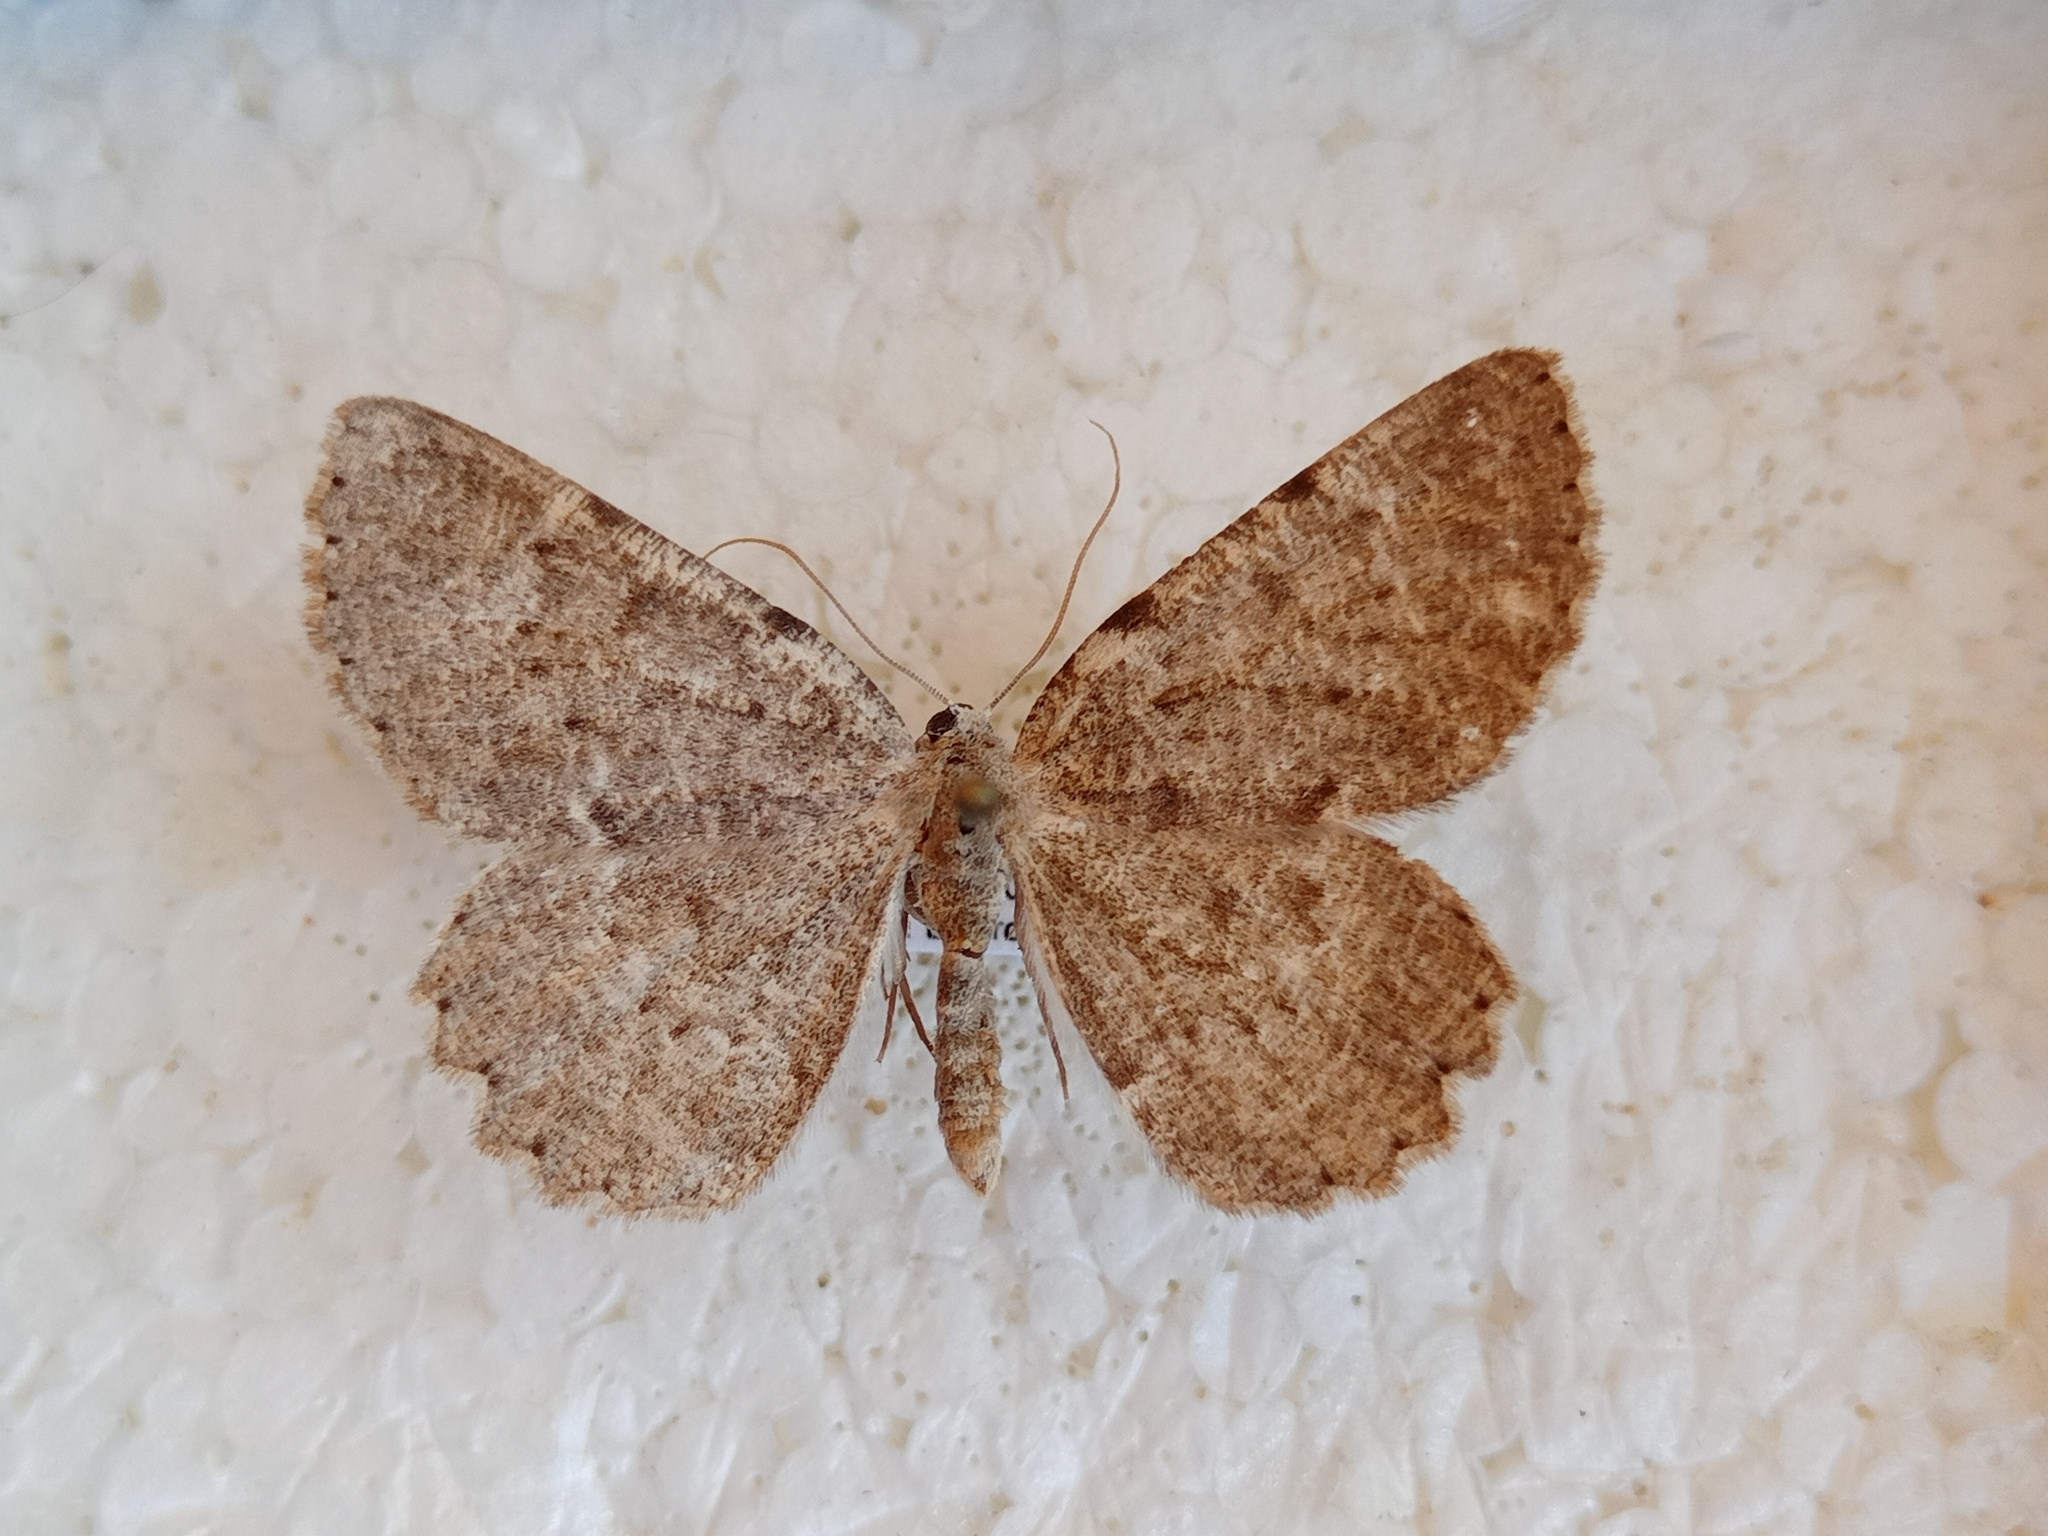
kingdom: Animalia
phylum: Arthropoda
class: Insecta
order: Lepidoptera
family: Geometridae
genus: Charissa
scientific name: Charissa pullata
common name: Limestone annulet
